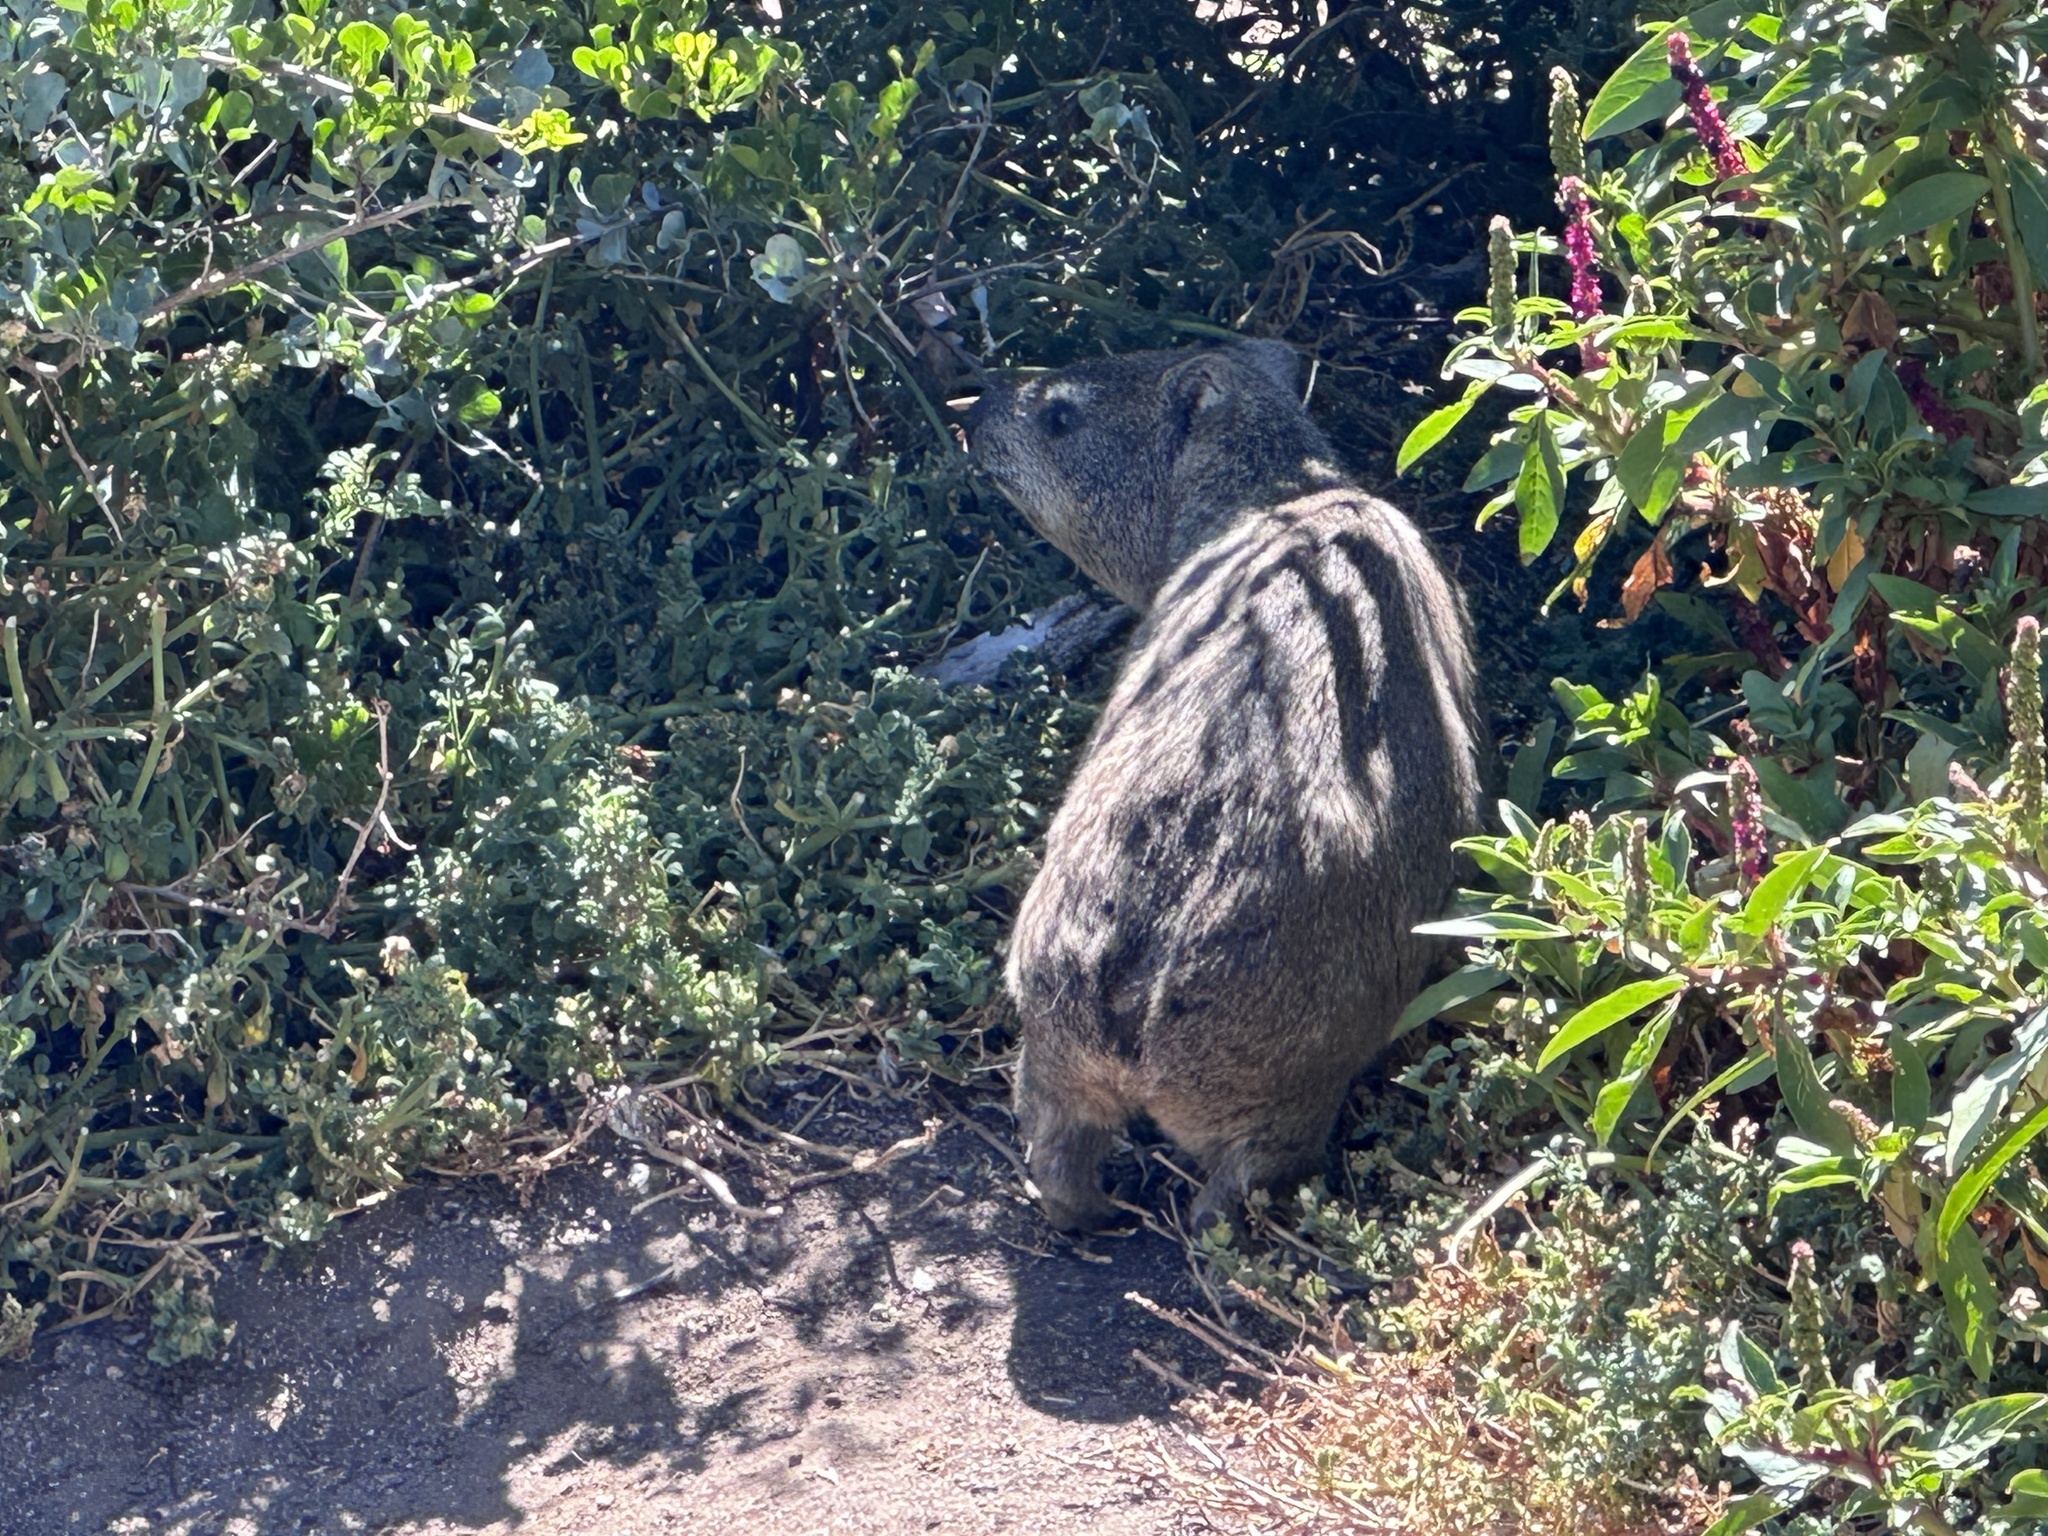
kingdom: Animalia
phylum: Chordata
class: Mammalia
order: Hyracoidea
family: Procaviidae
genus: Procavia
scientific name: Procavia capensis
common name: Rock hyrax
